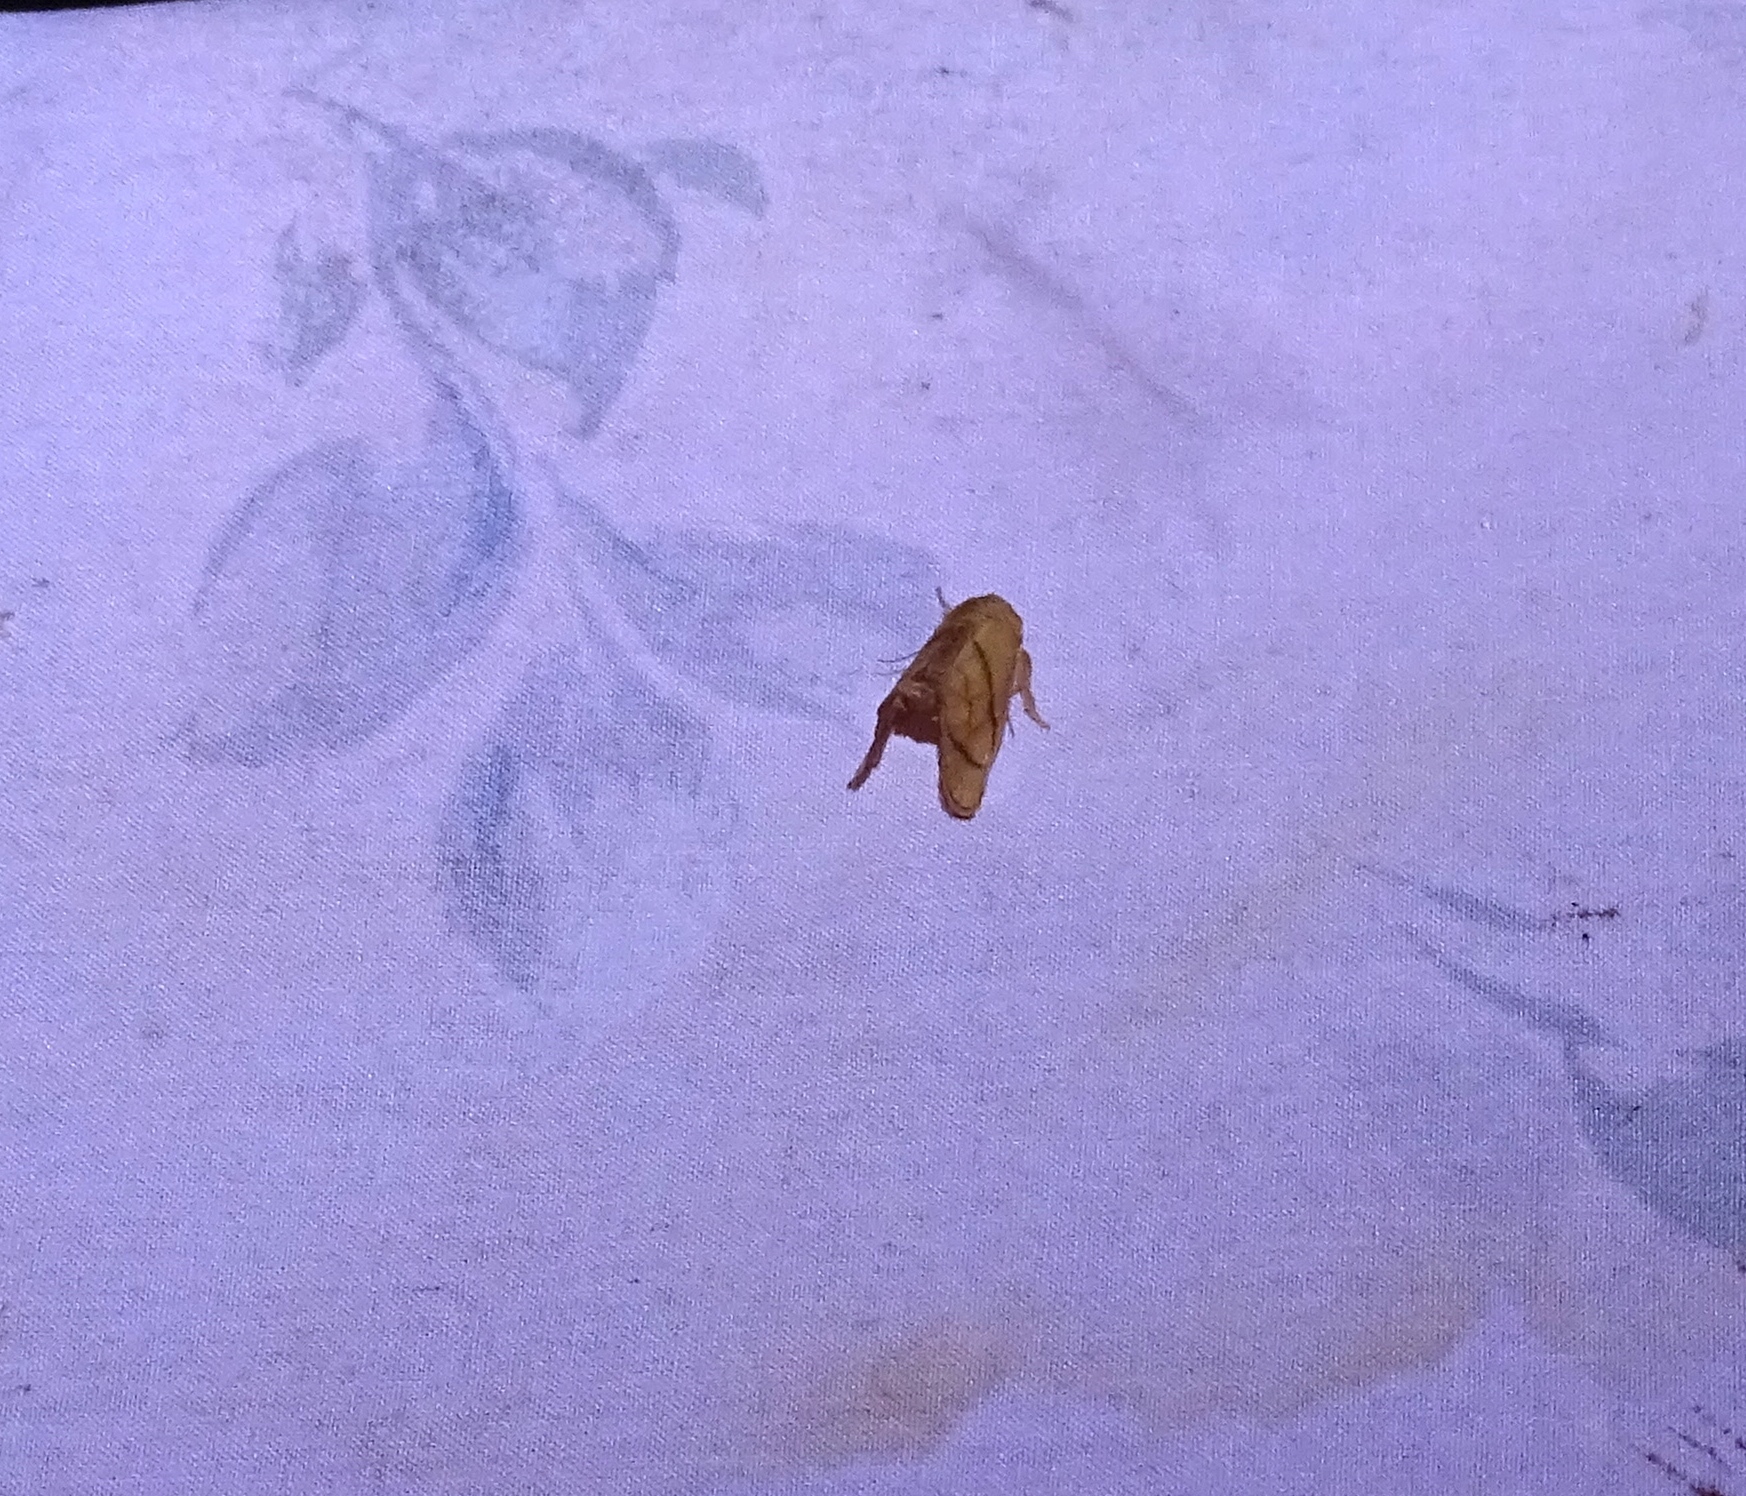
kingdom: Animalia
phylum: Arthropoda
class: Insecta
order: Lepidoptera
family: Limacodidae
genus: Apoda
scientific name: Apoda y-inversa
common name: Yellow-collared slug moth
